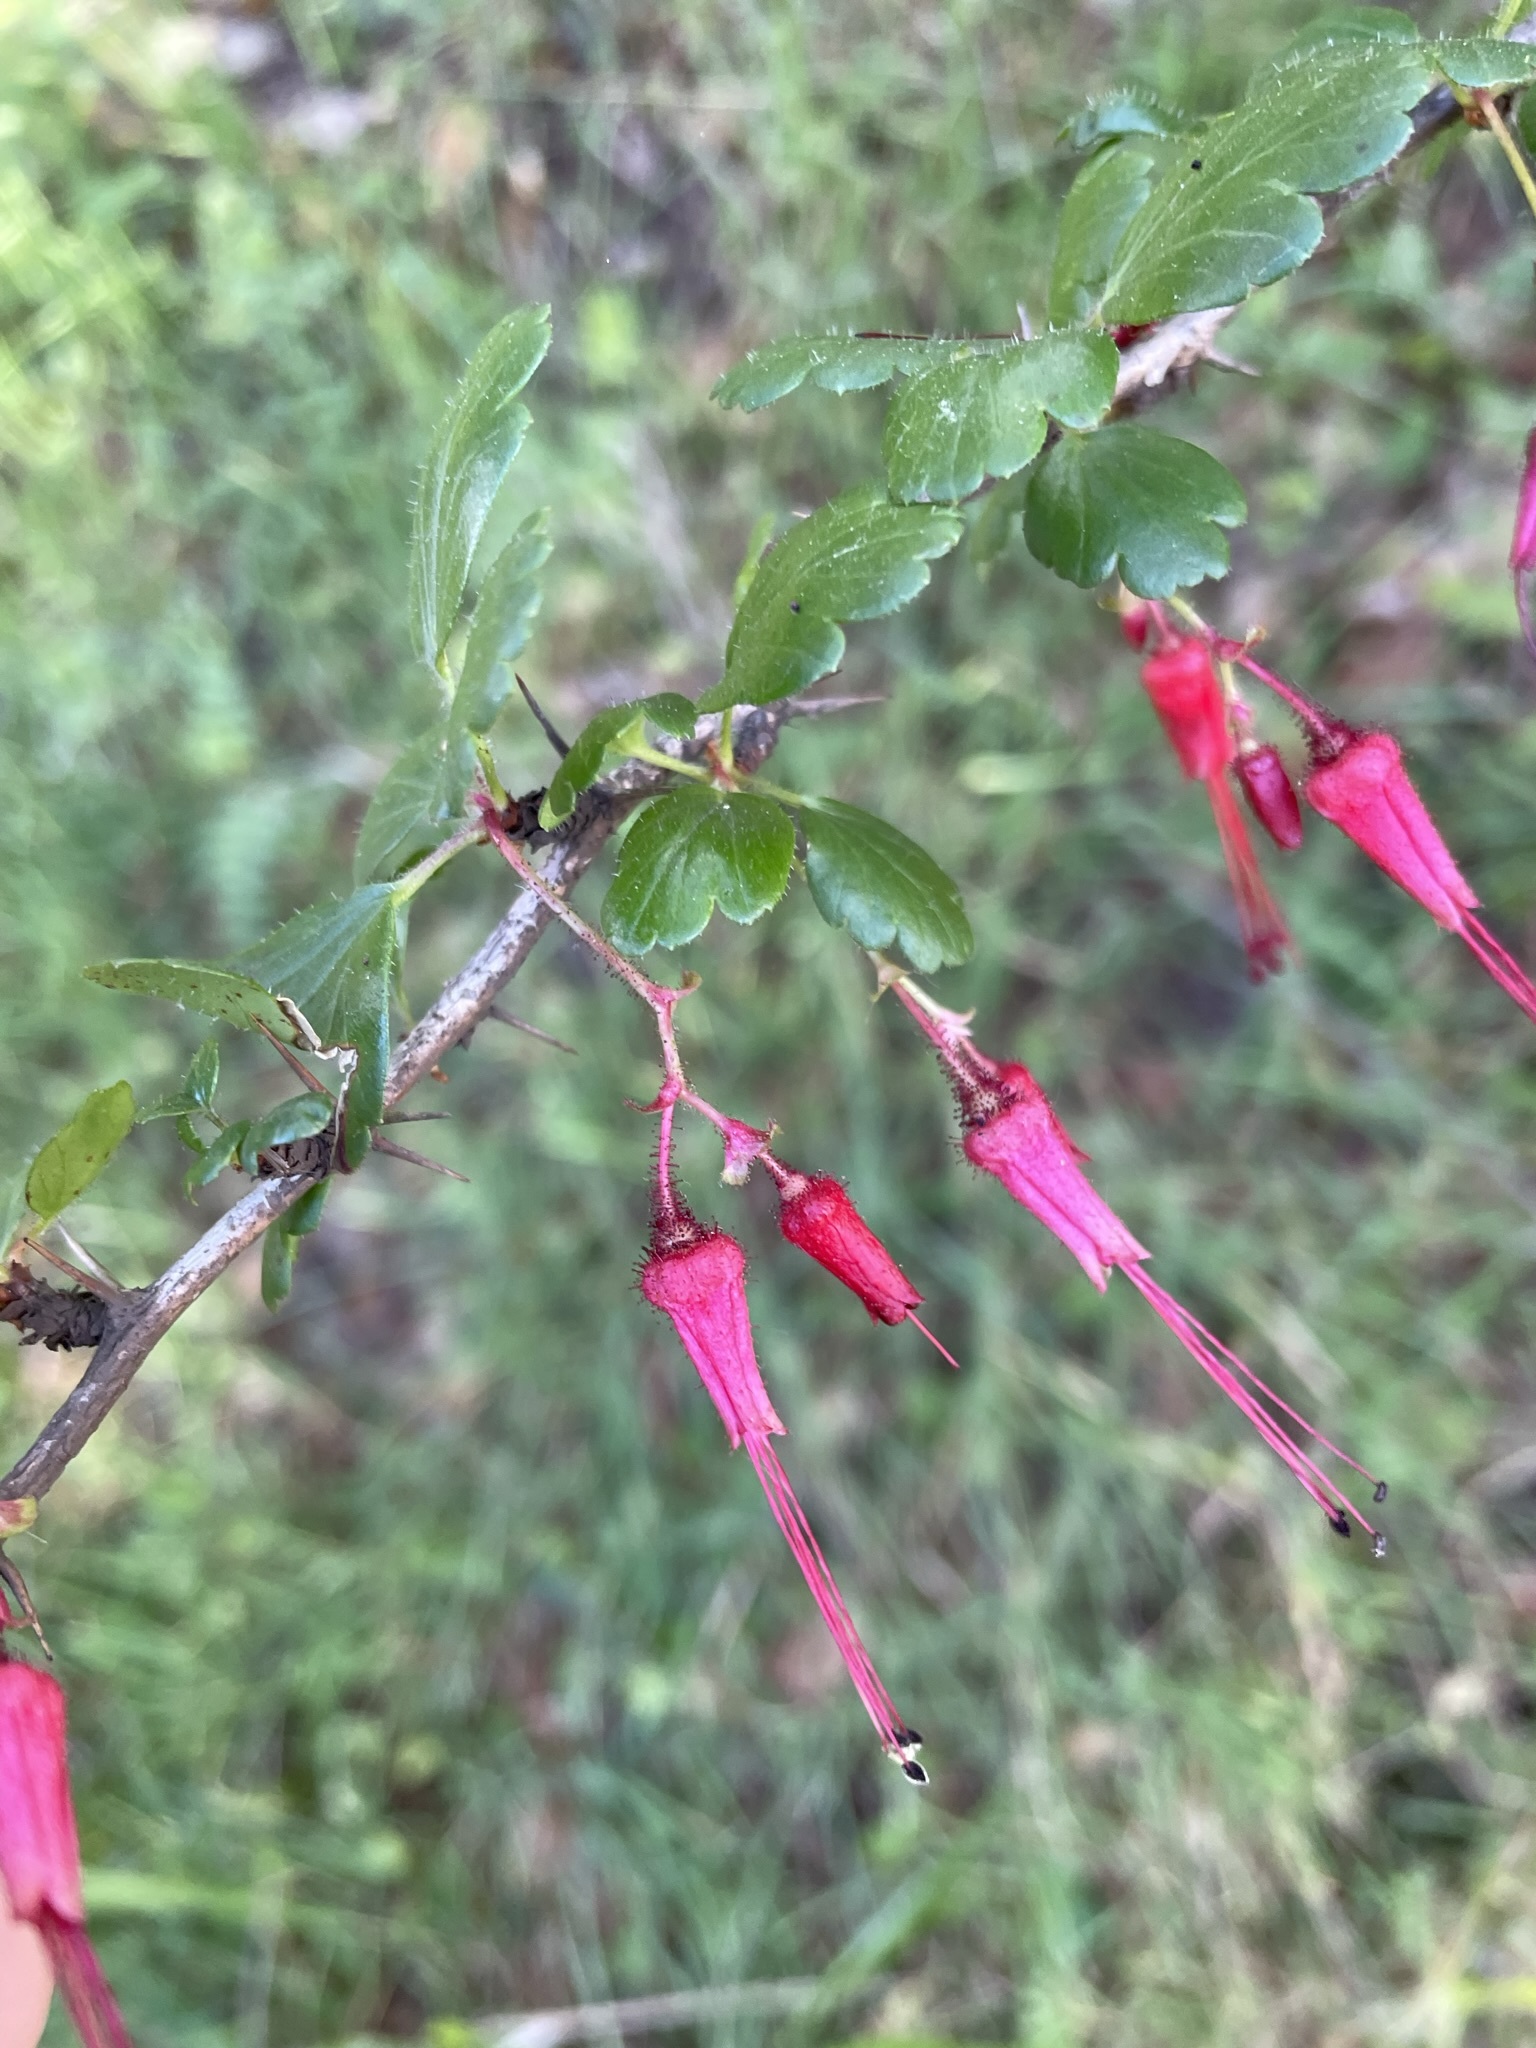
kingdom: Plantae
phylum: Tracheophyta
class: Magnoliopsida
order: Saxifragales
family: Grossulariaceae
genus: Ribes
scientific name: Ribes speciosum
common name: Fuchsia-flower gooseberry
